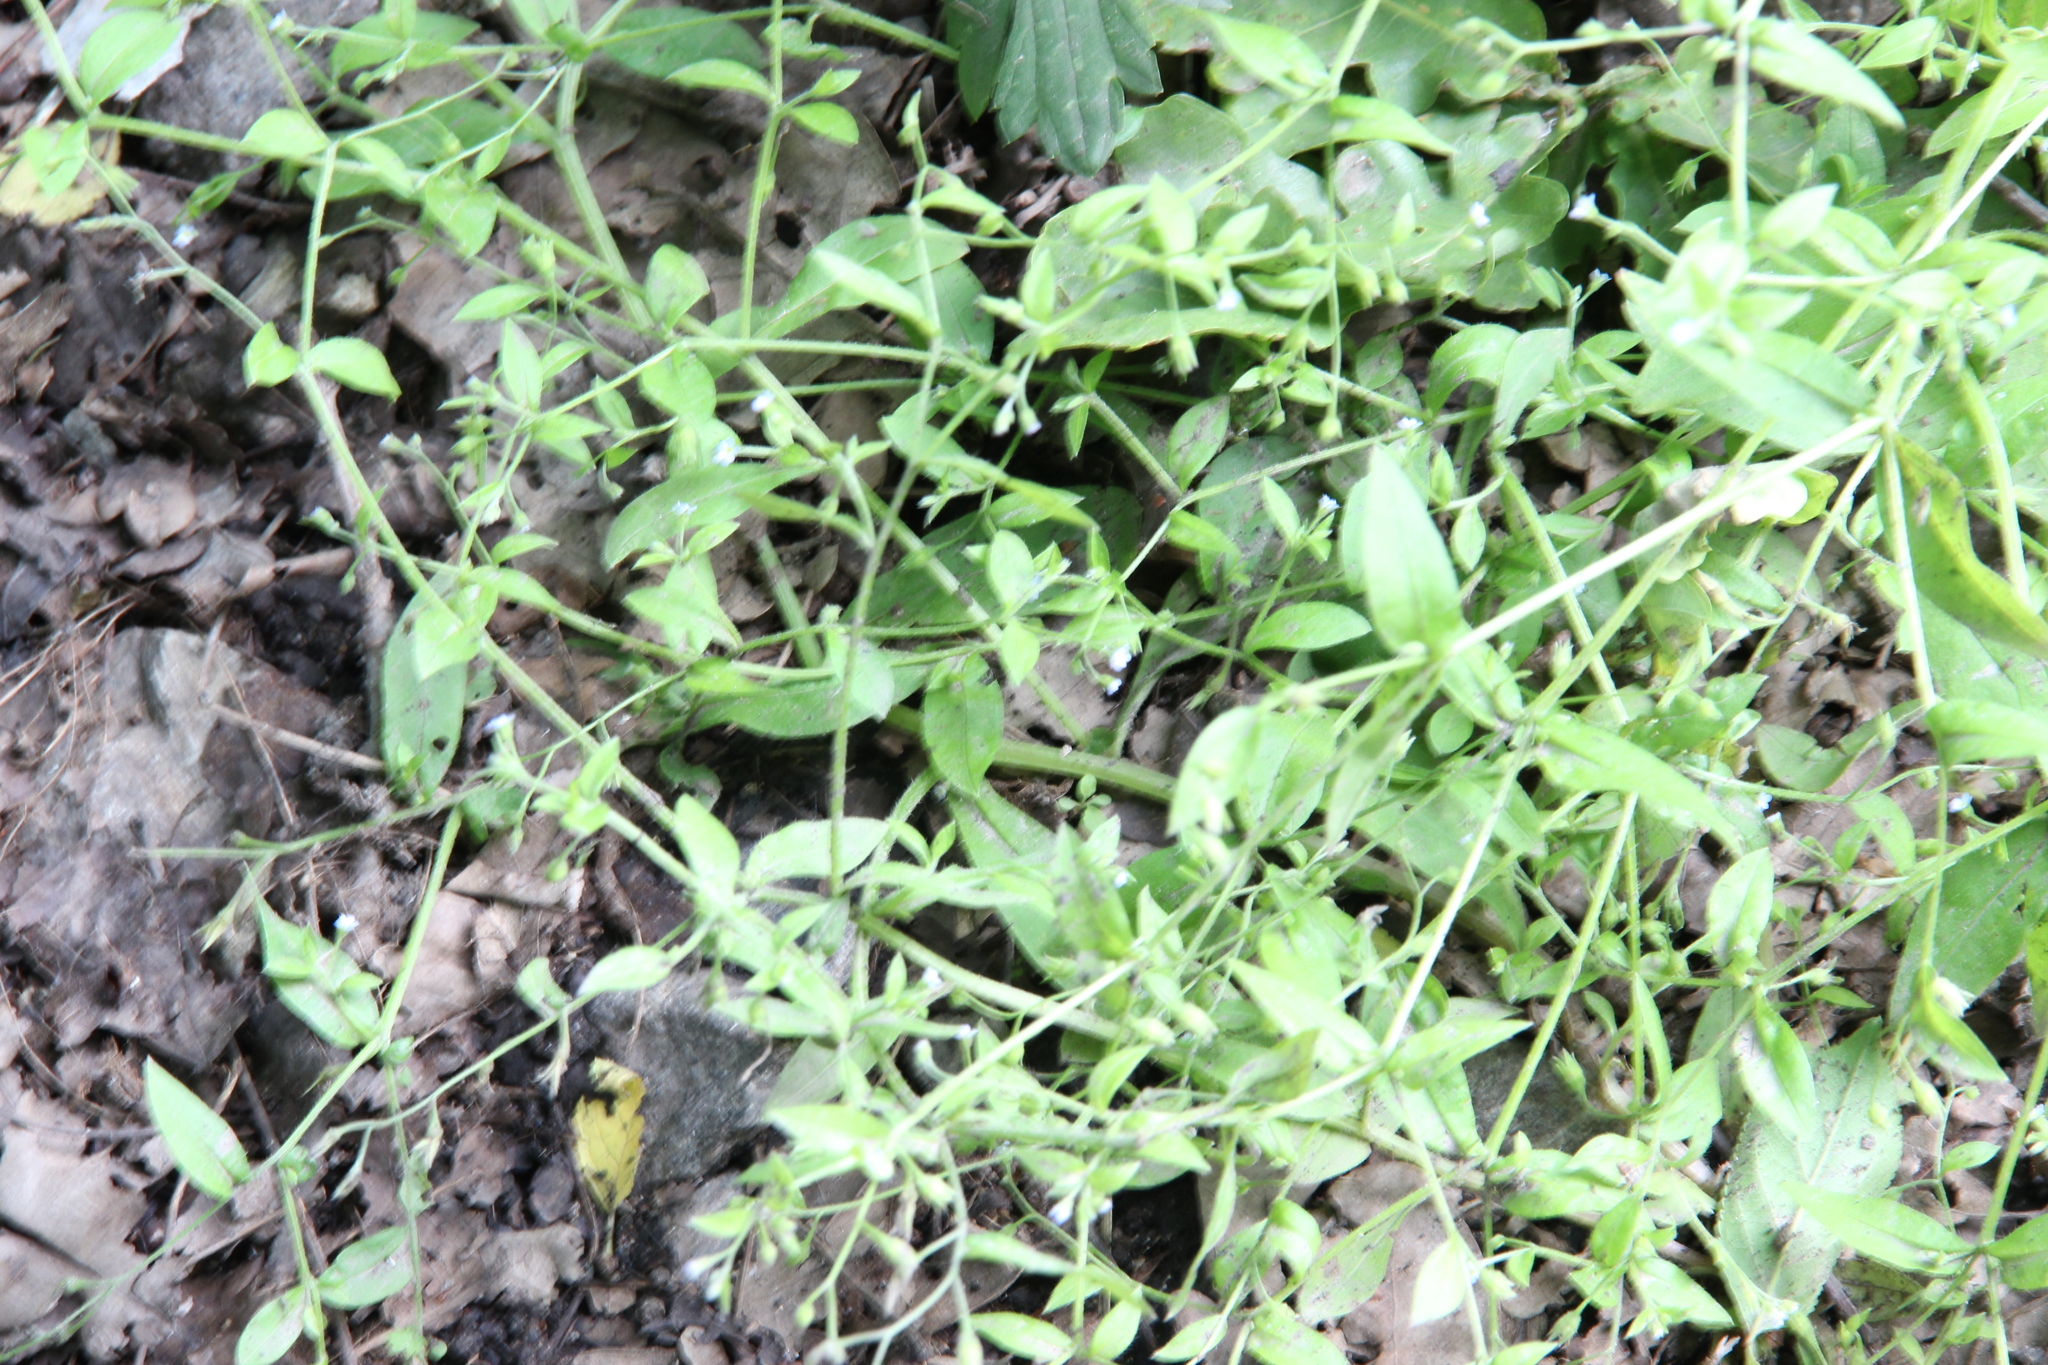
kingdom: Plantae
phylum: Tracheophyta
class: Magnoliopsida
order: Boraginales
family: Boraginaceae
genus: Myosotis
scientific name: Myosotis sparsiflora
